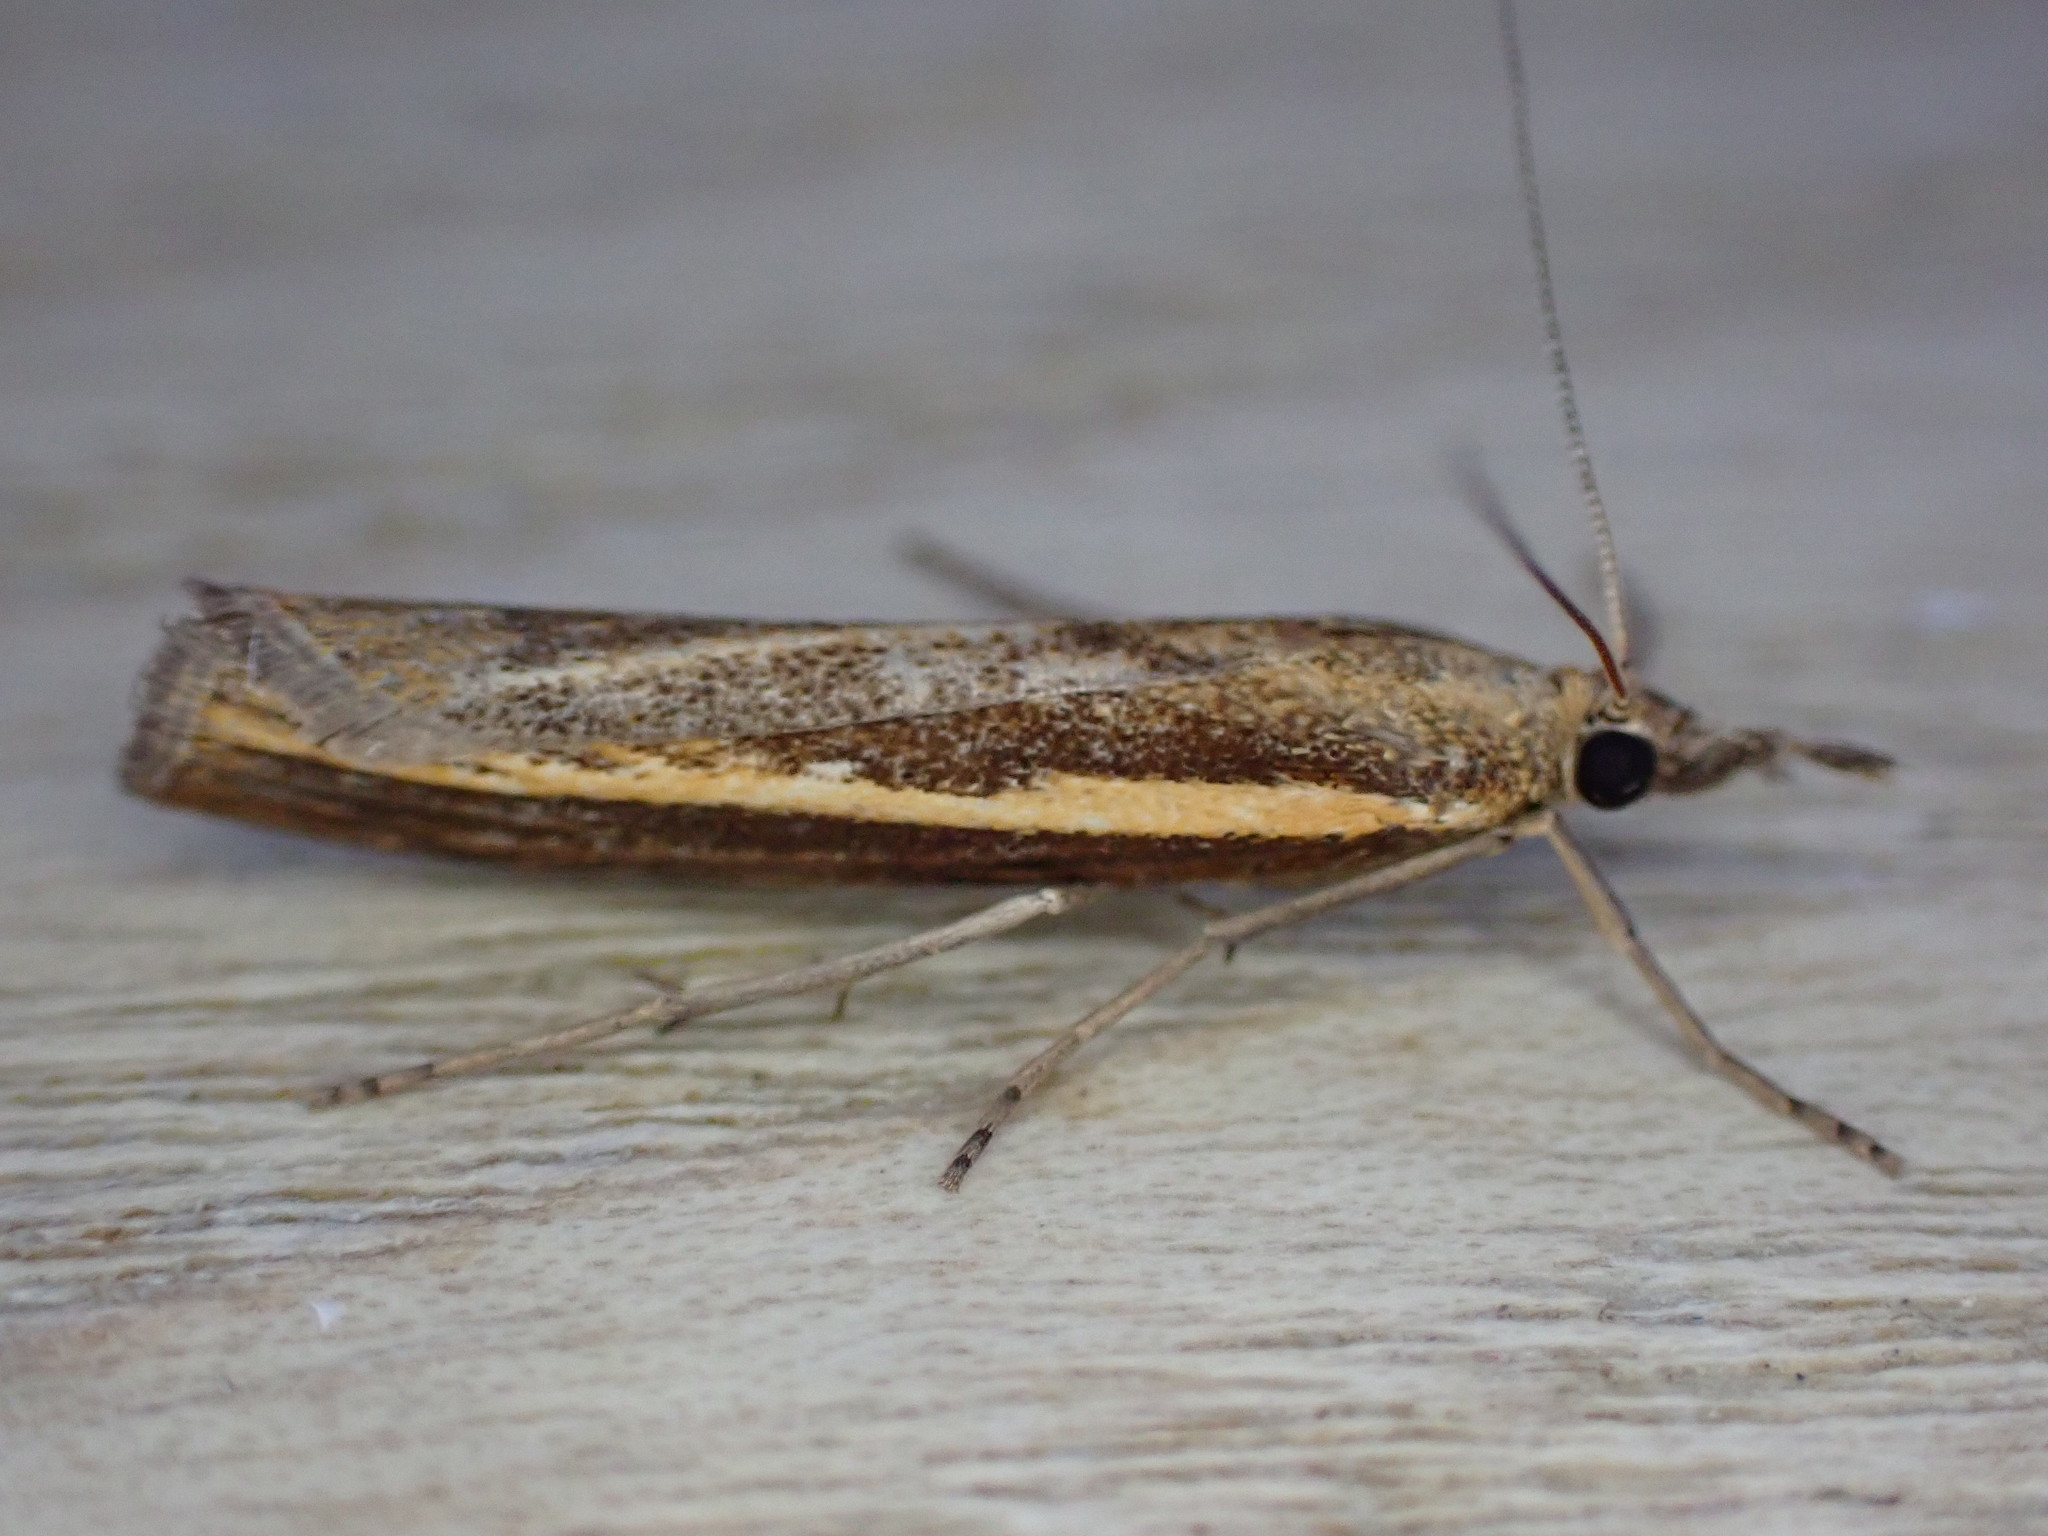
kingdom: Animalia
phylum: Arthropoda
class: Insecta
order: Lepidoptera
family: Crambidae
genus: Agriphila
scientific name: Agriphila tristellus
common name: Common grass-veneer
